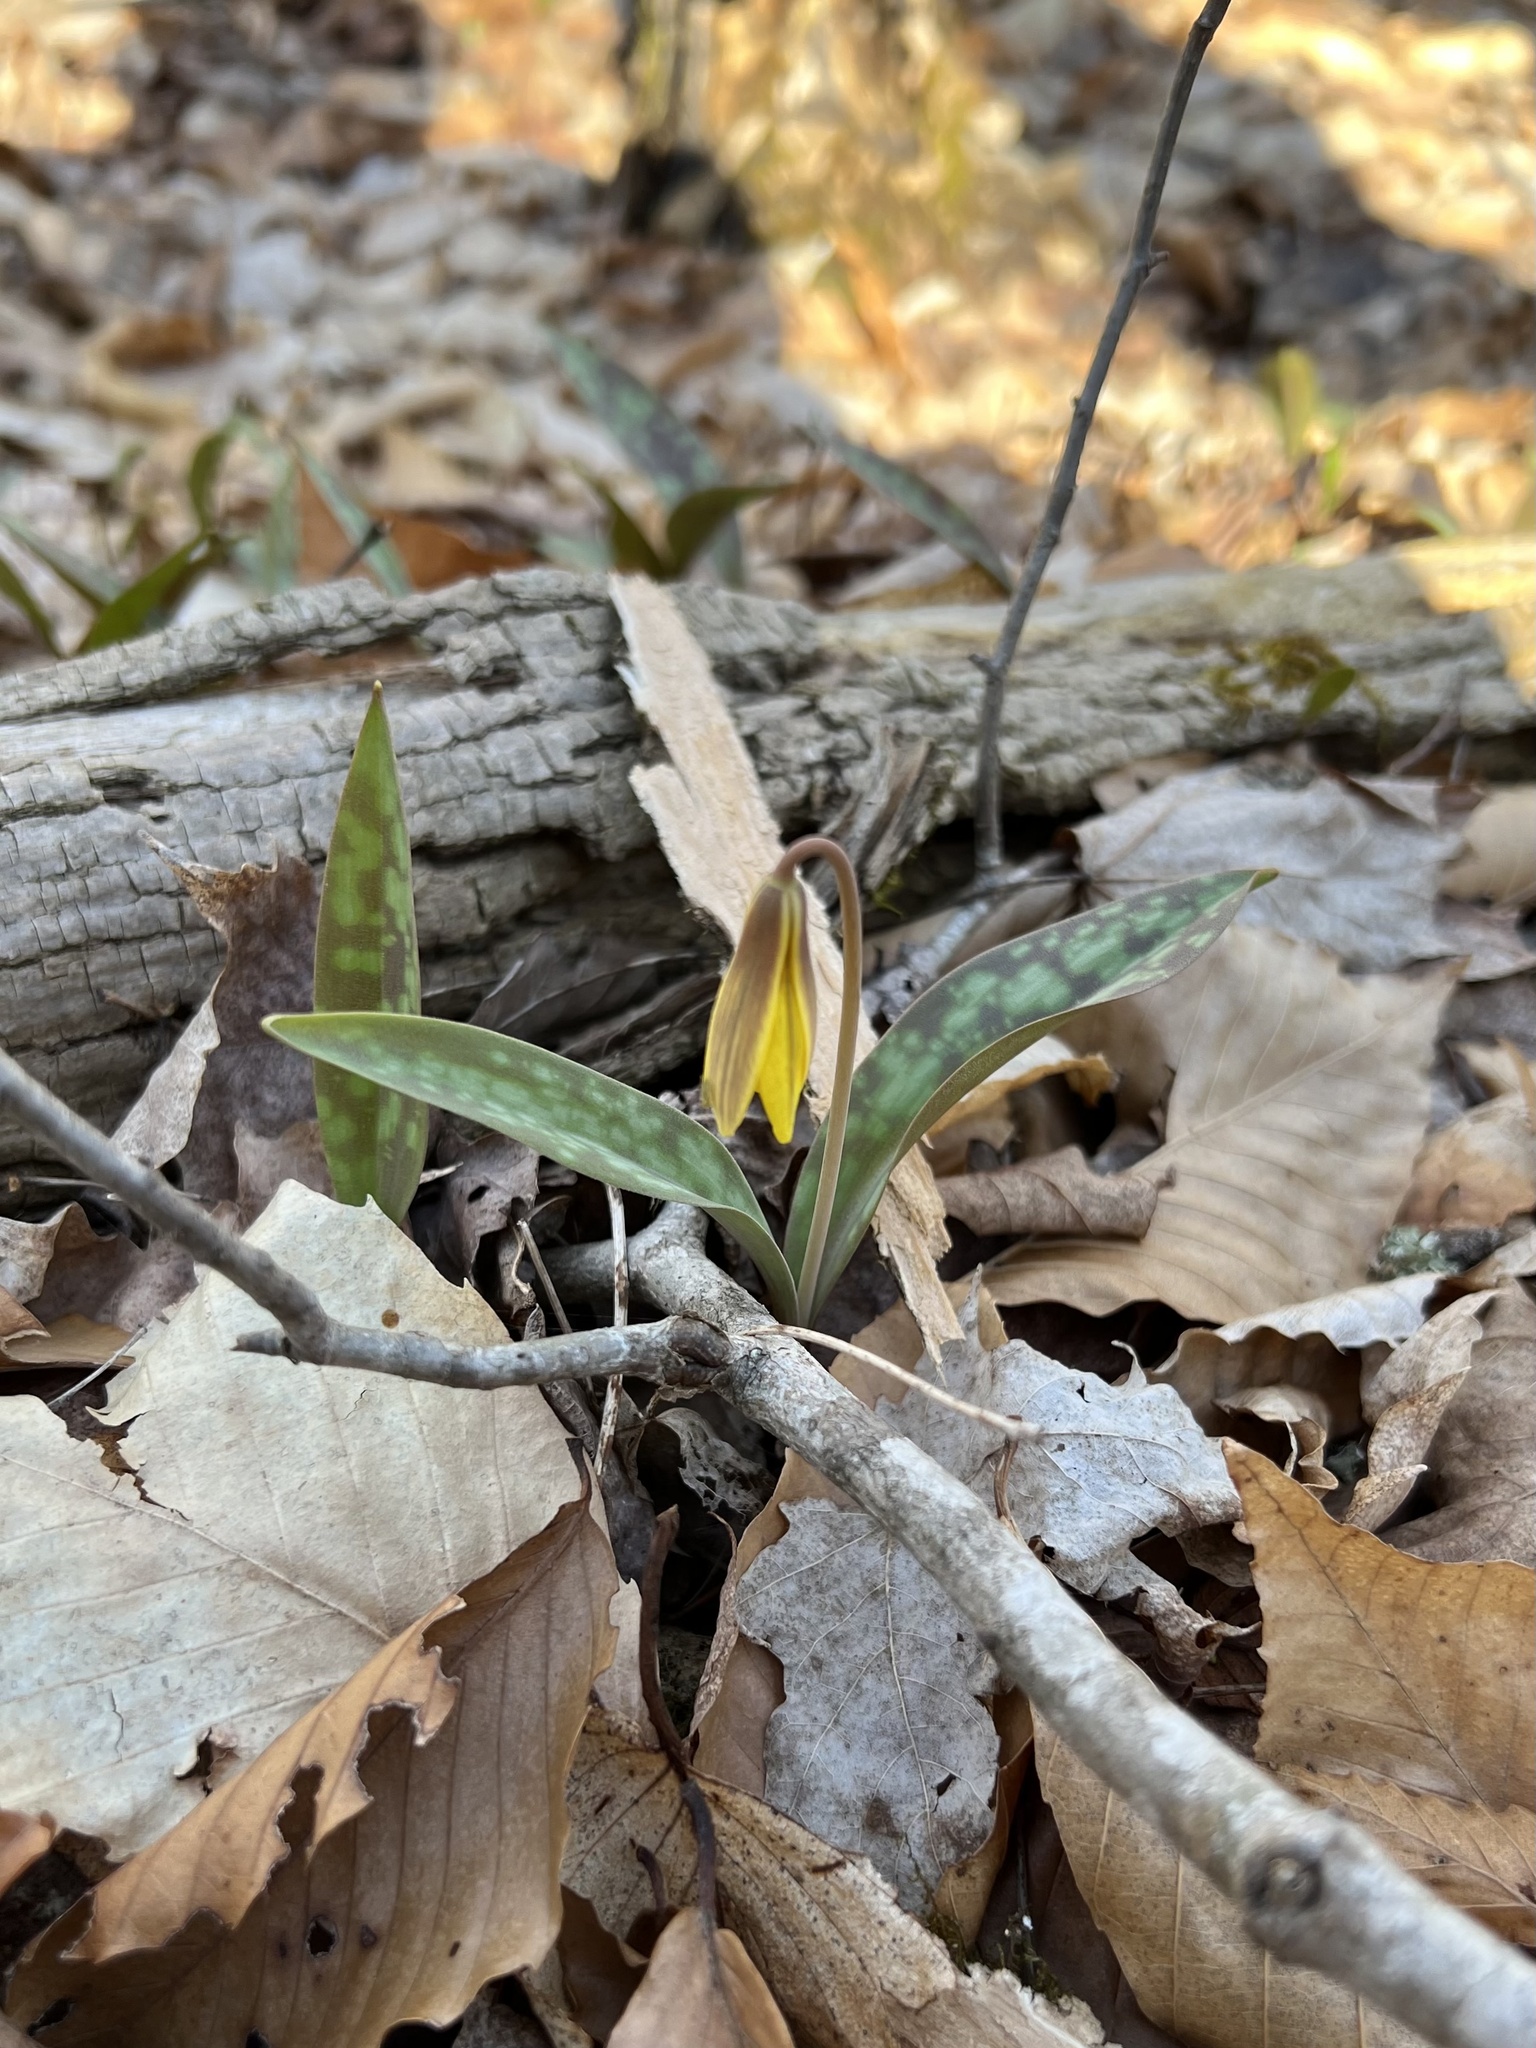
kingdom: Plantae
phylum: Tracheophyta
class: Liliopsida
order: Liliales
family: Liliaceae
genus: Erythronium
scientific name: Erythronium americanum
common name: Yellow adder's-tongue
